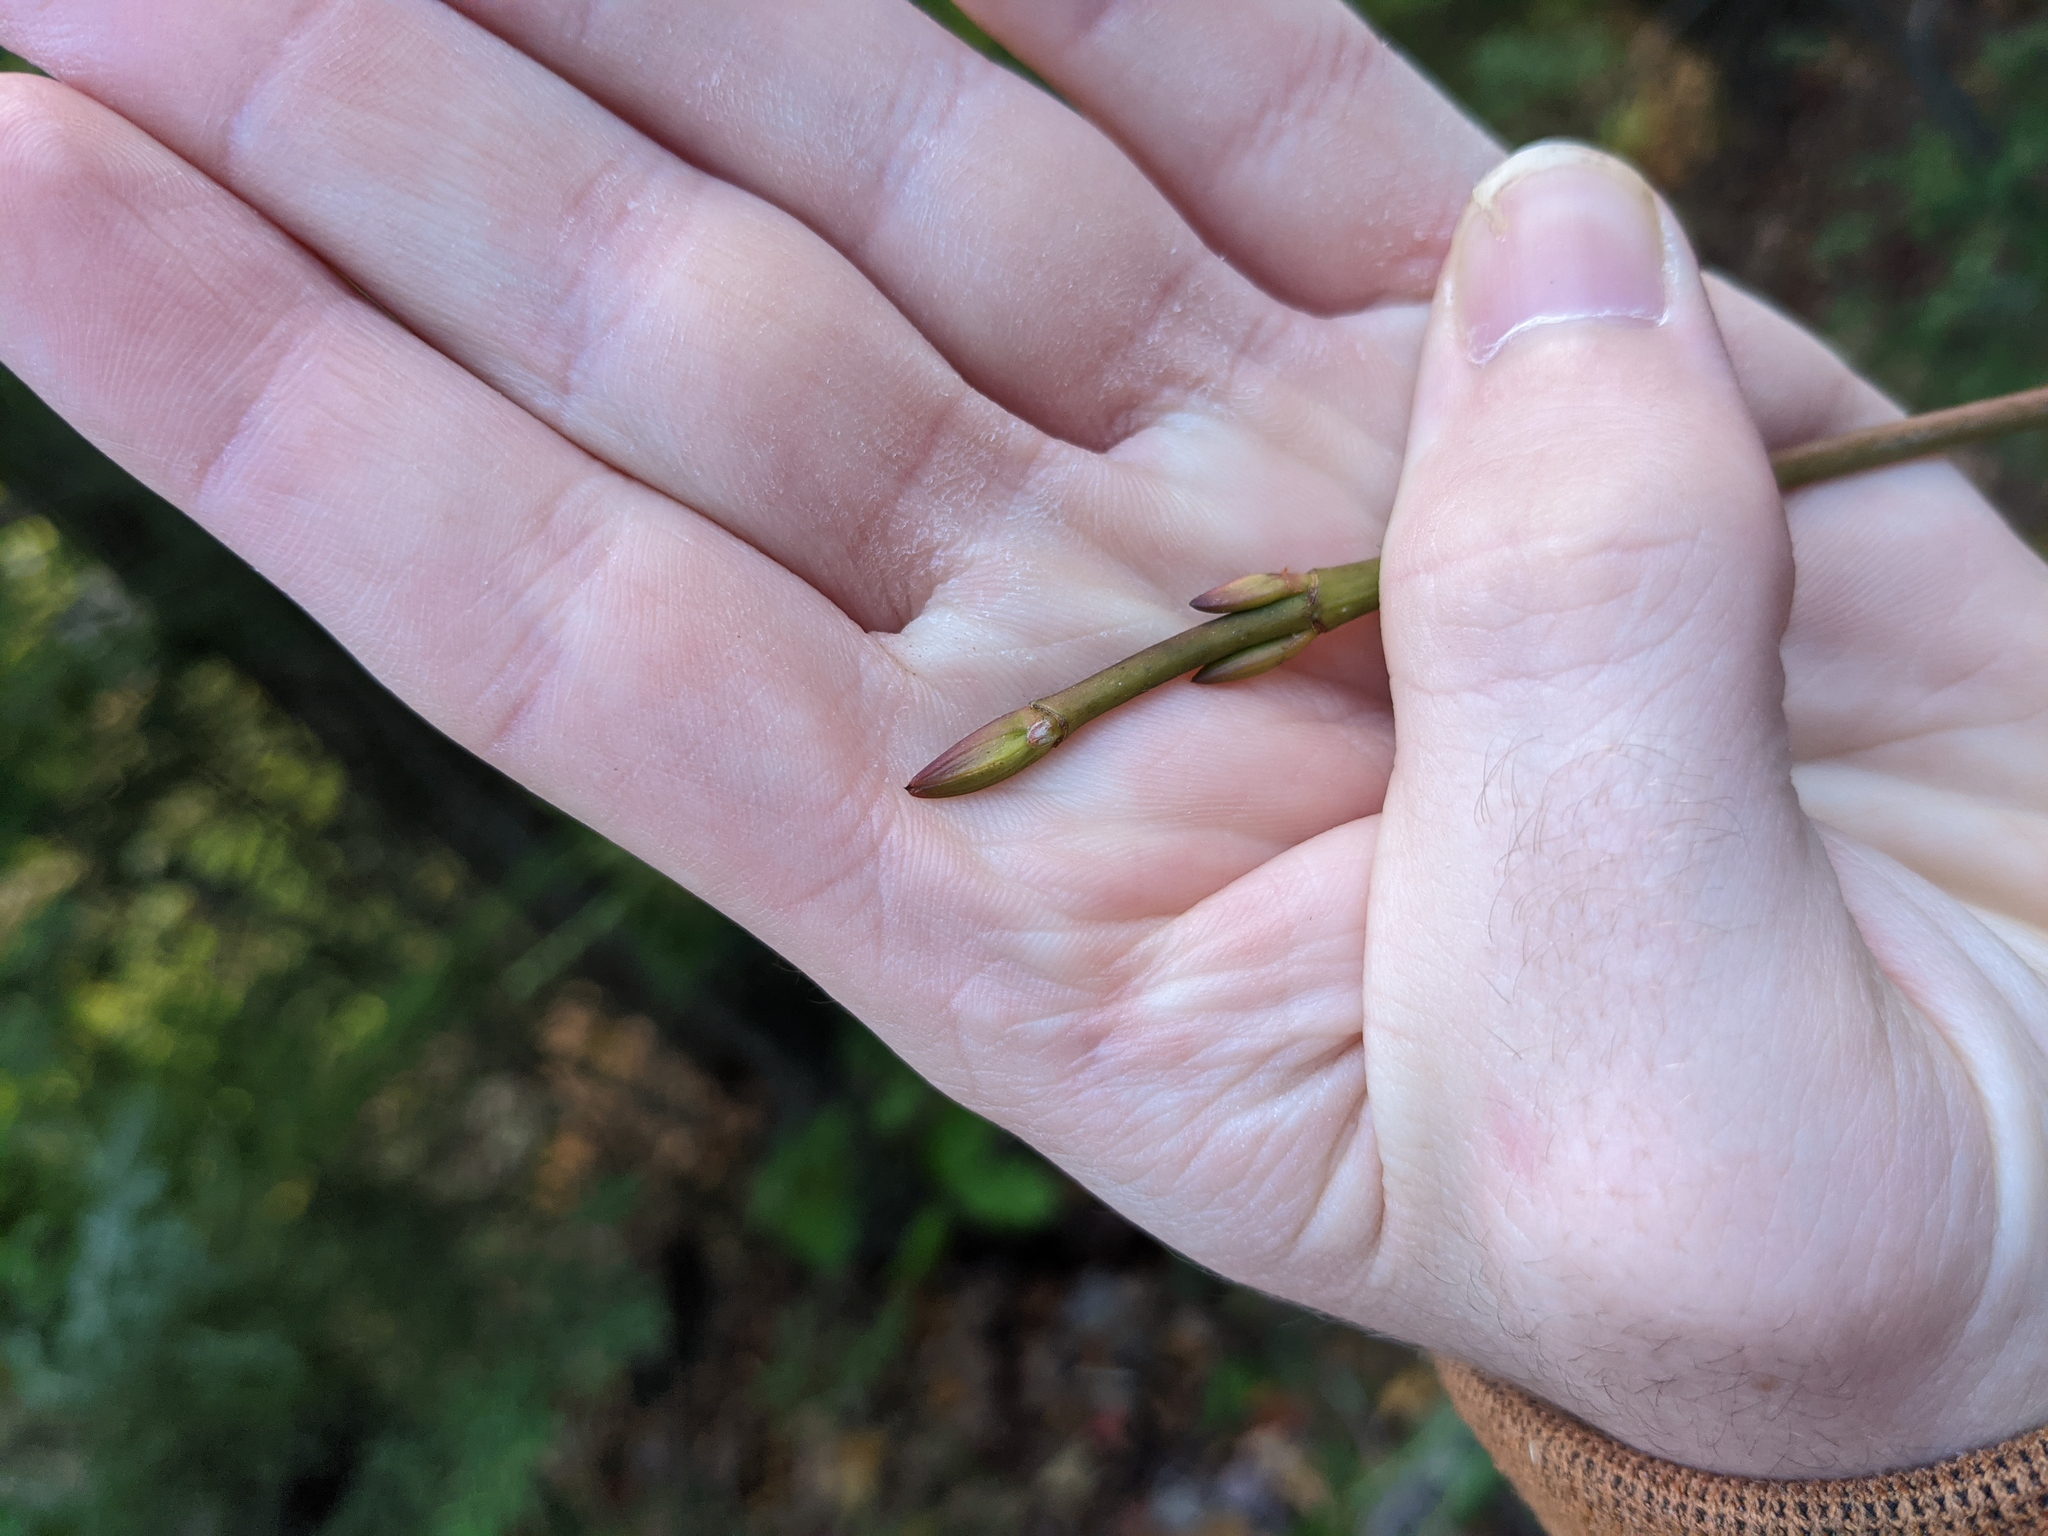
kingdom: Plantae
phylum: Tracheophyta
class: Magnoliopsida
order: Sapindales
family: Sapindaceae
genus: Acer
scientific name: Acer pensylvanicum
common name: Moosewood
